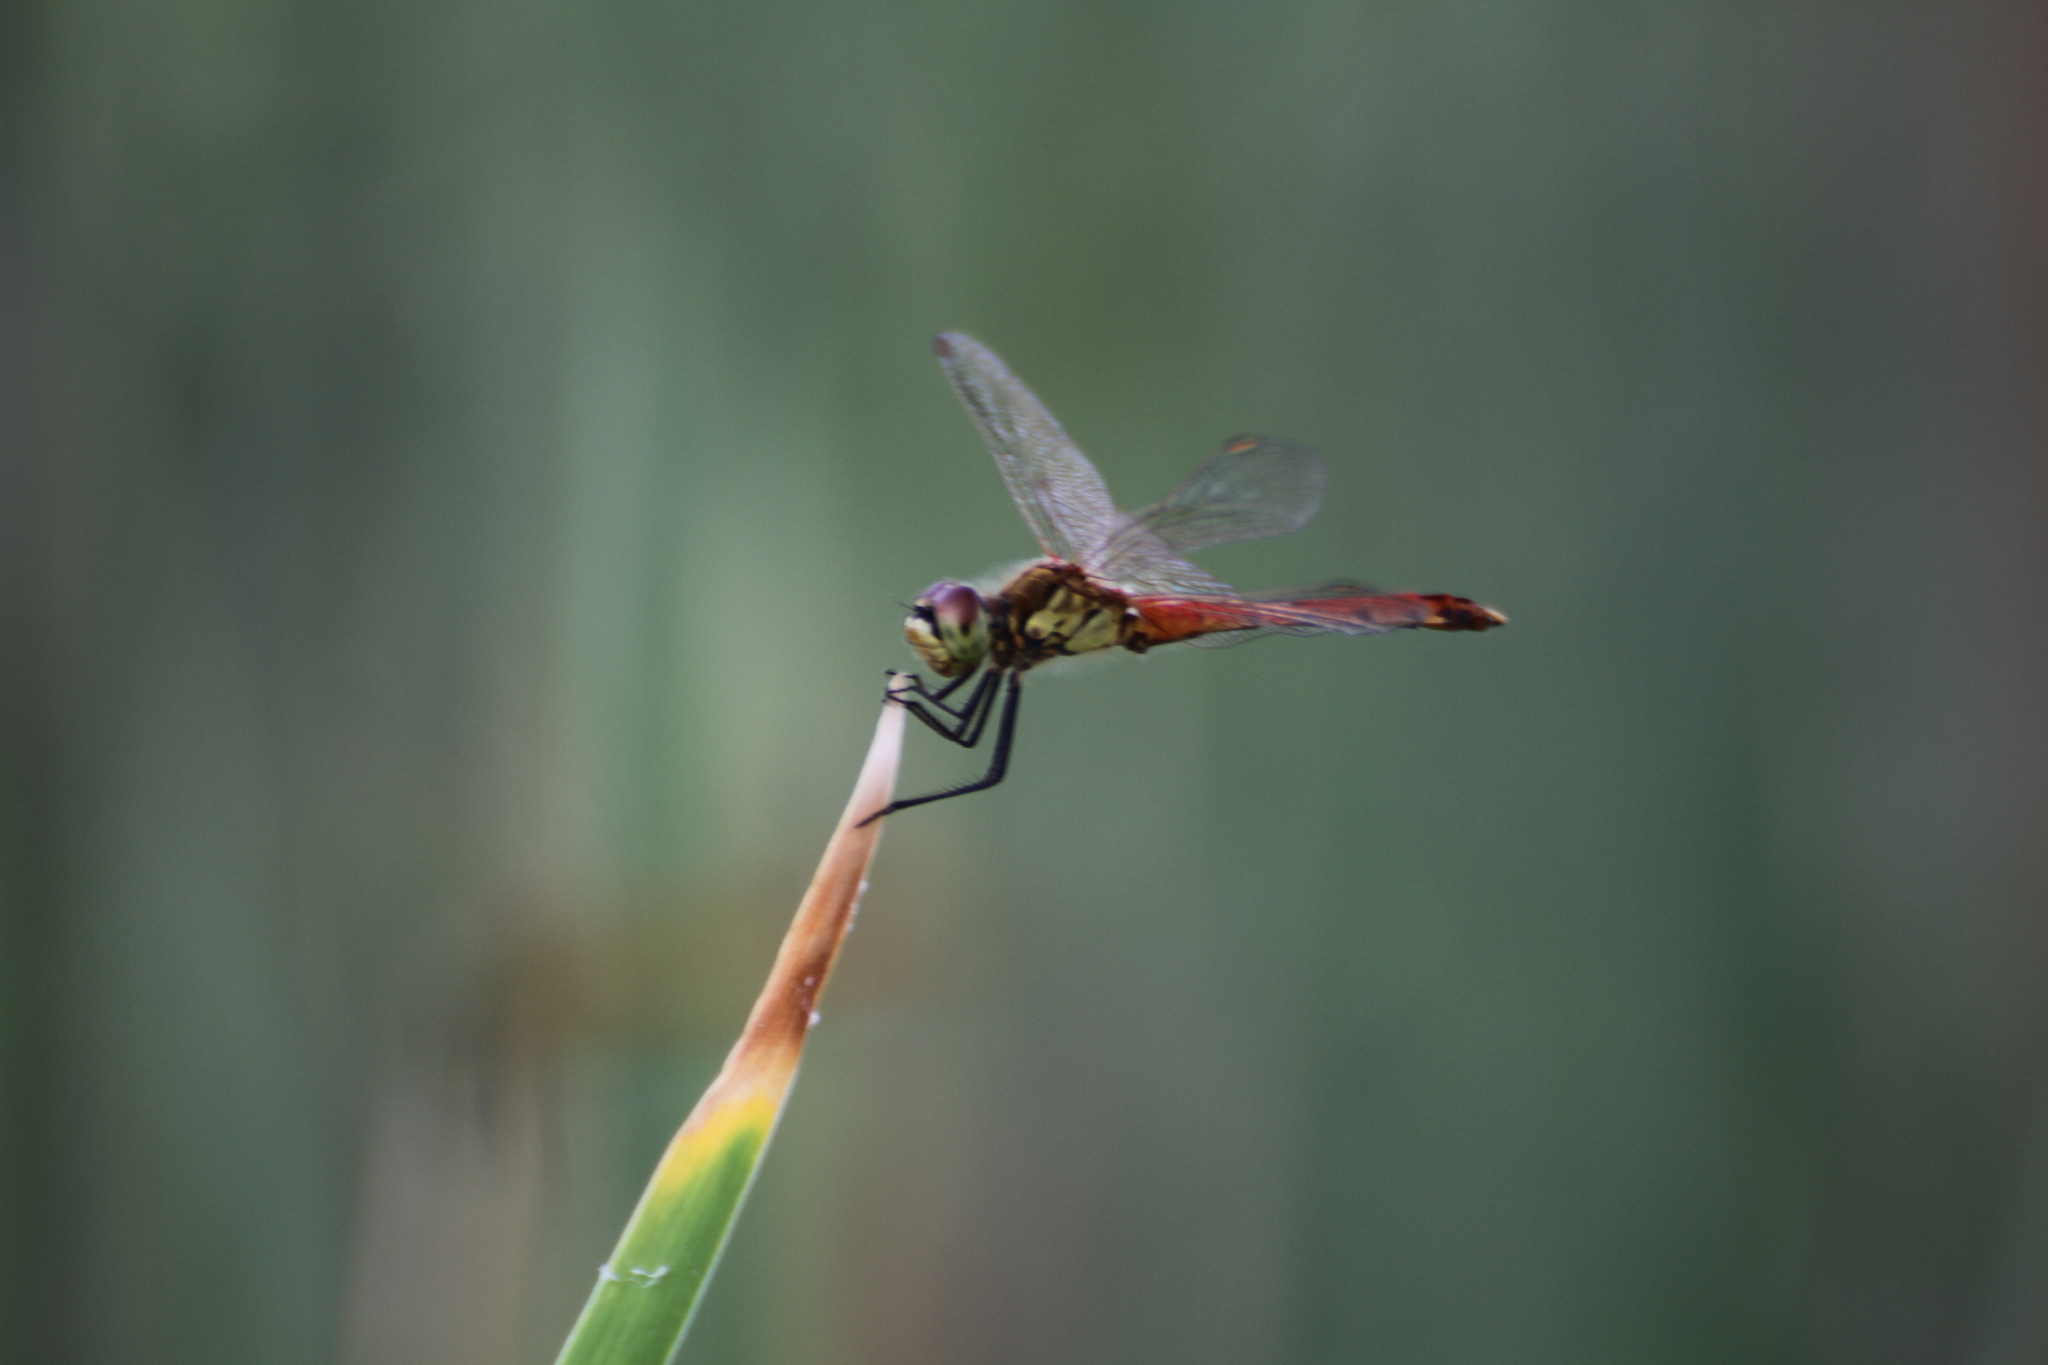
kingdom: Animalia
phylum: Arthropoda
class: Insecta
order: Odonata
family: Libellulidae
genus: Sympetrum
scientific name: Sympetrum depressiusculum
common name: Spotted darter
